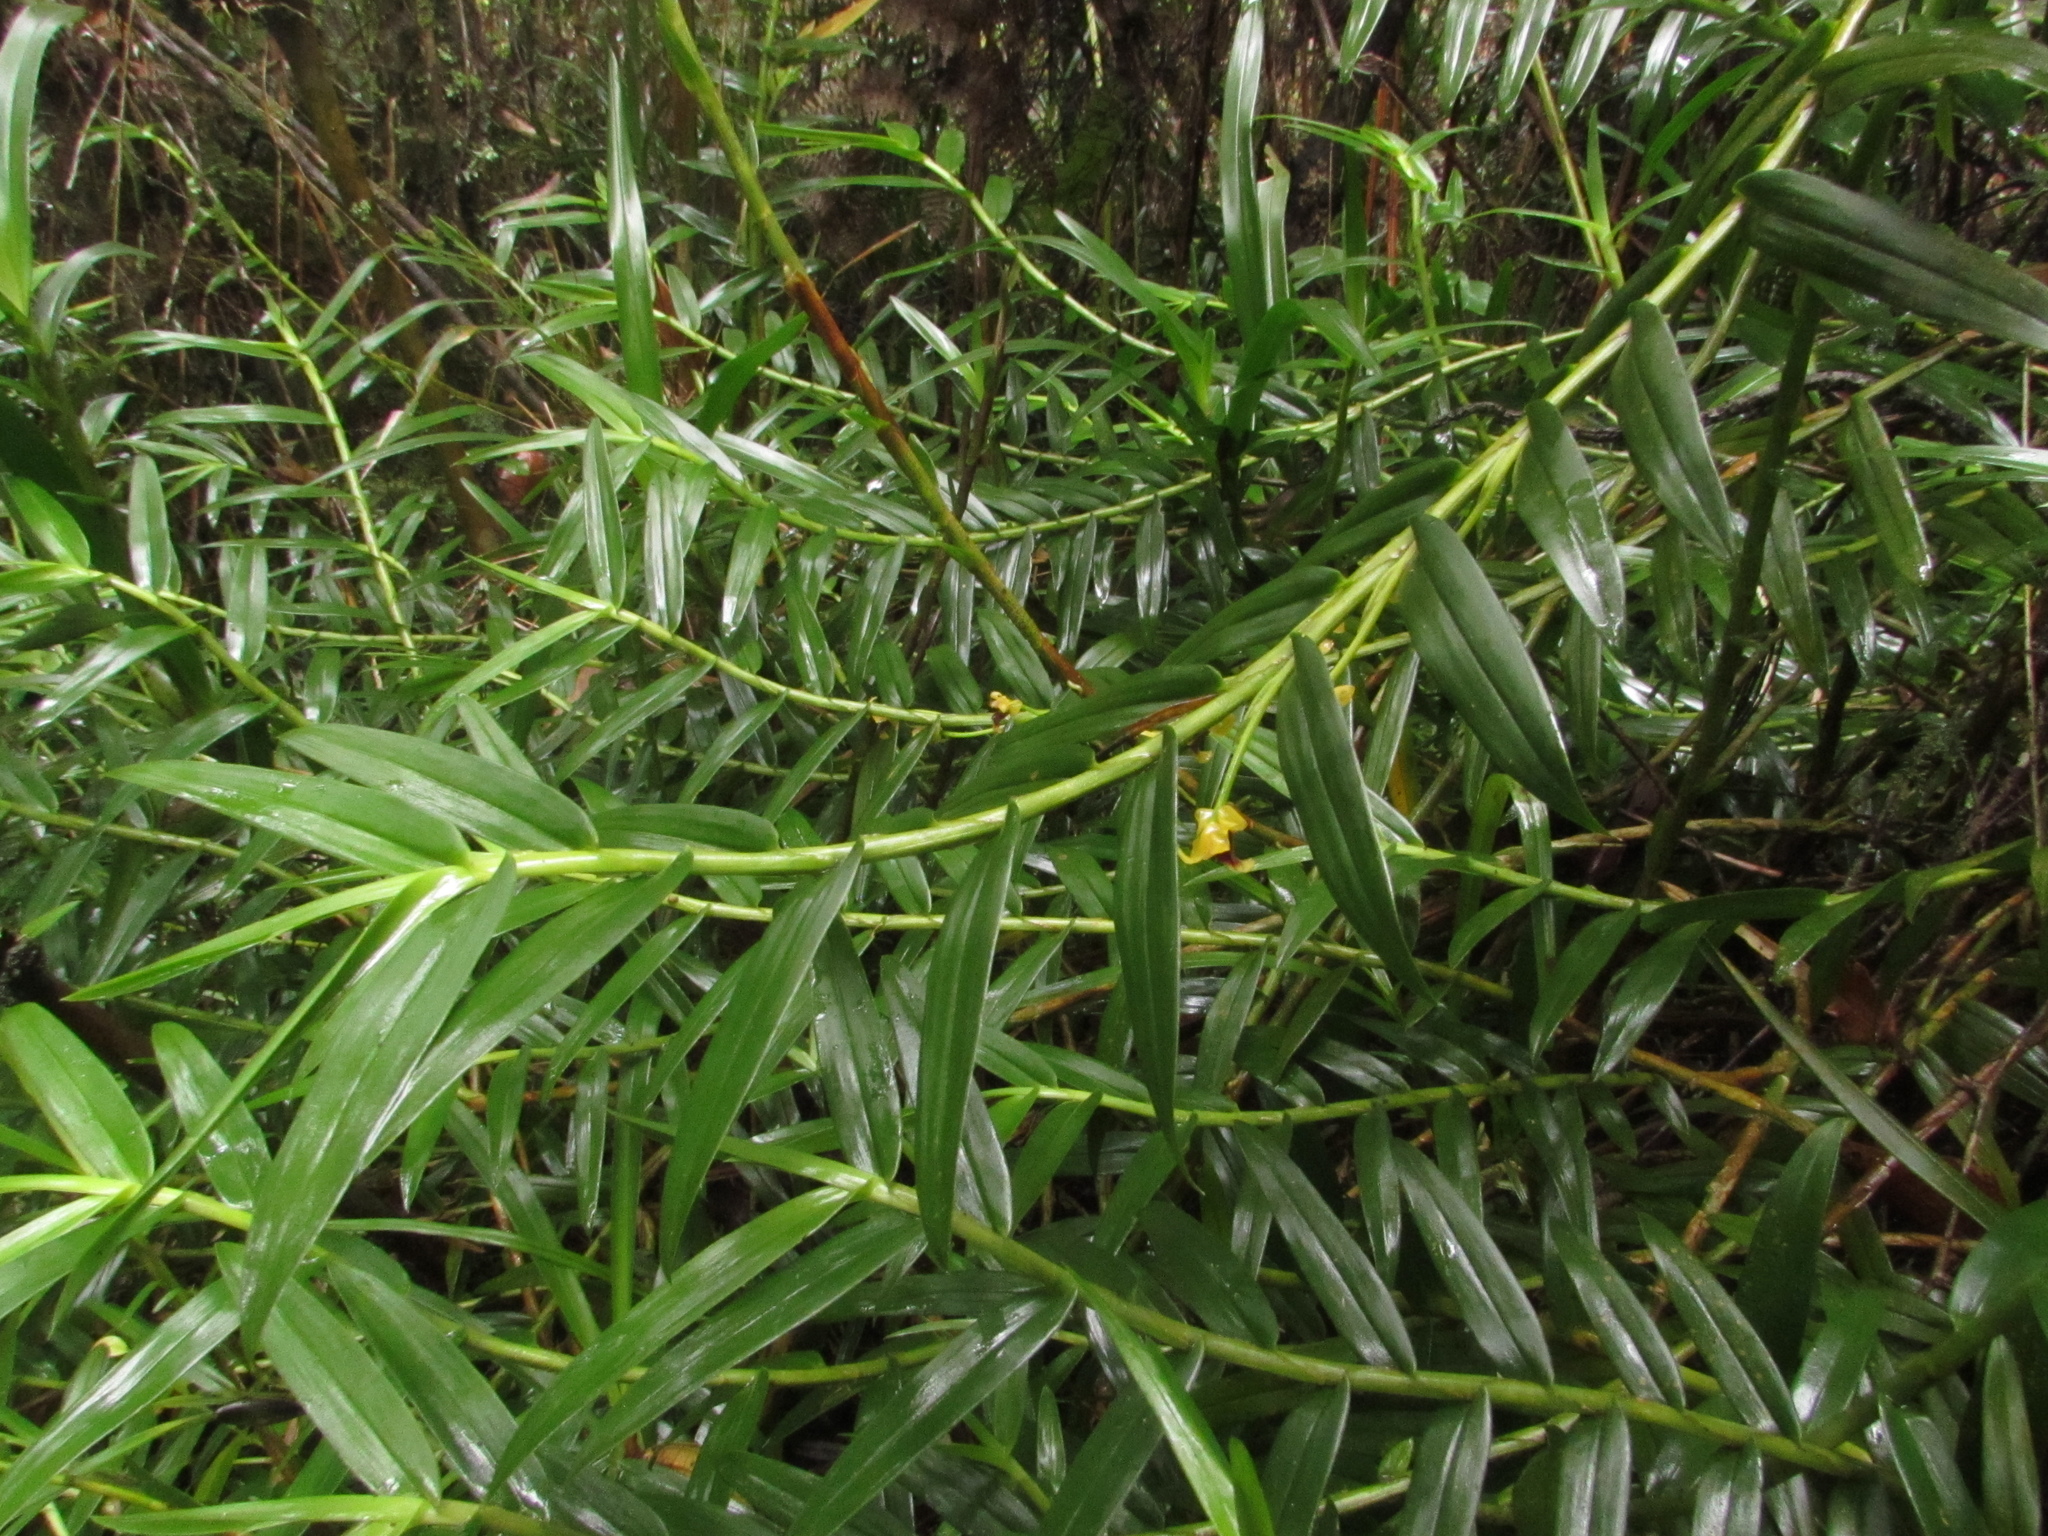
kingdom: Plantae
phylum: Tracheophyta
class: Liliopsida
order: Asparagales
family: Orchidaceae
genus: Maxillaria
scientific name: Maxillaria brevifolia
